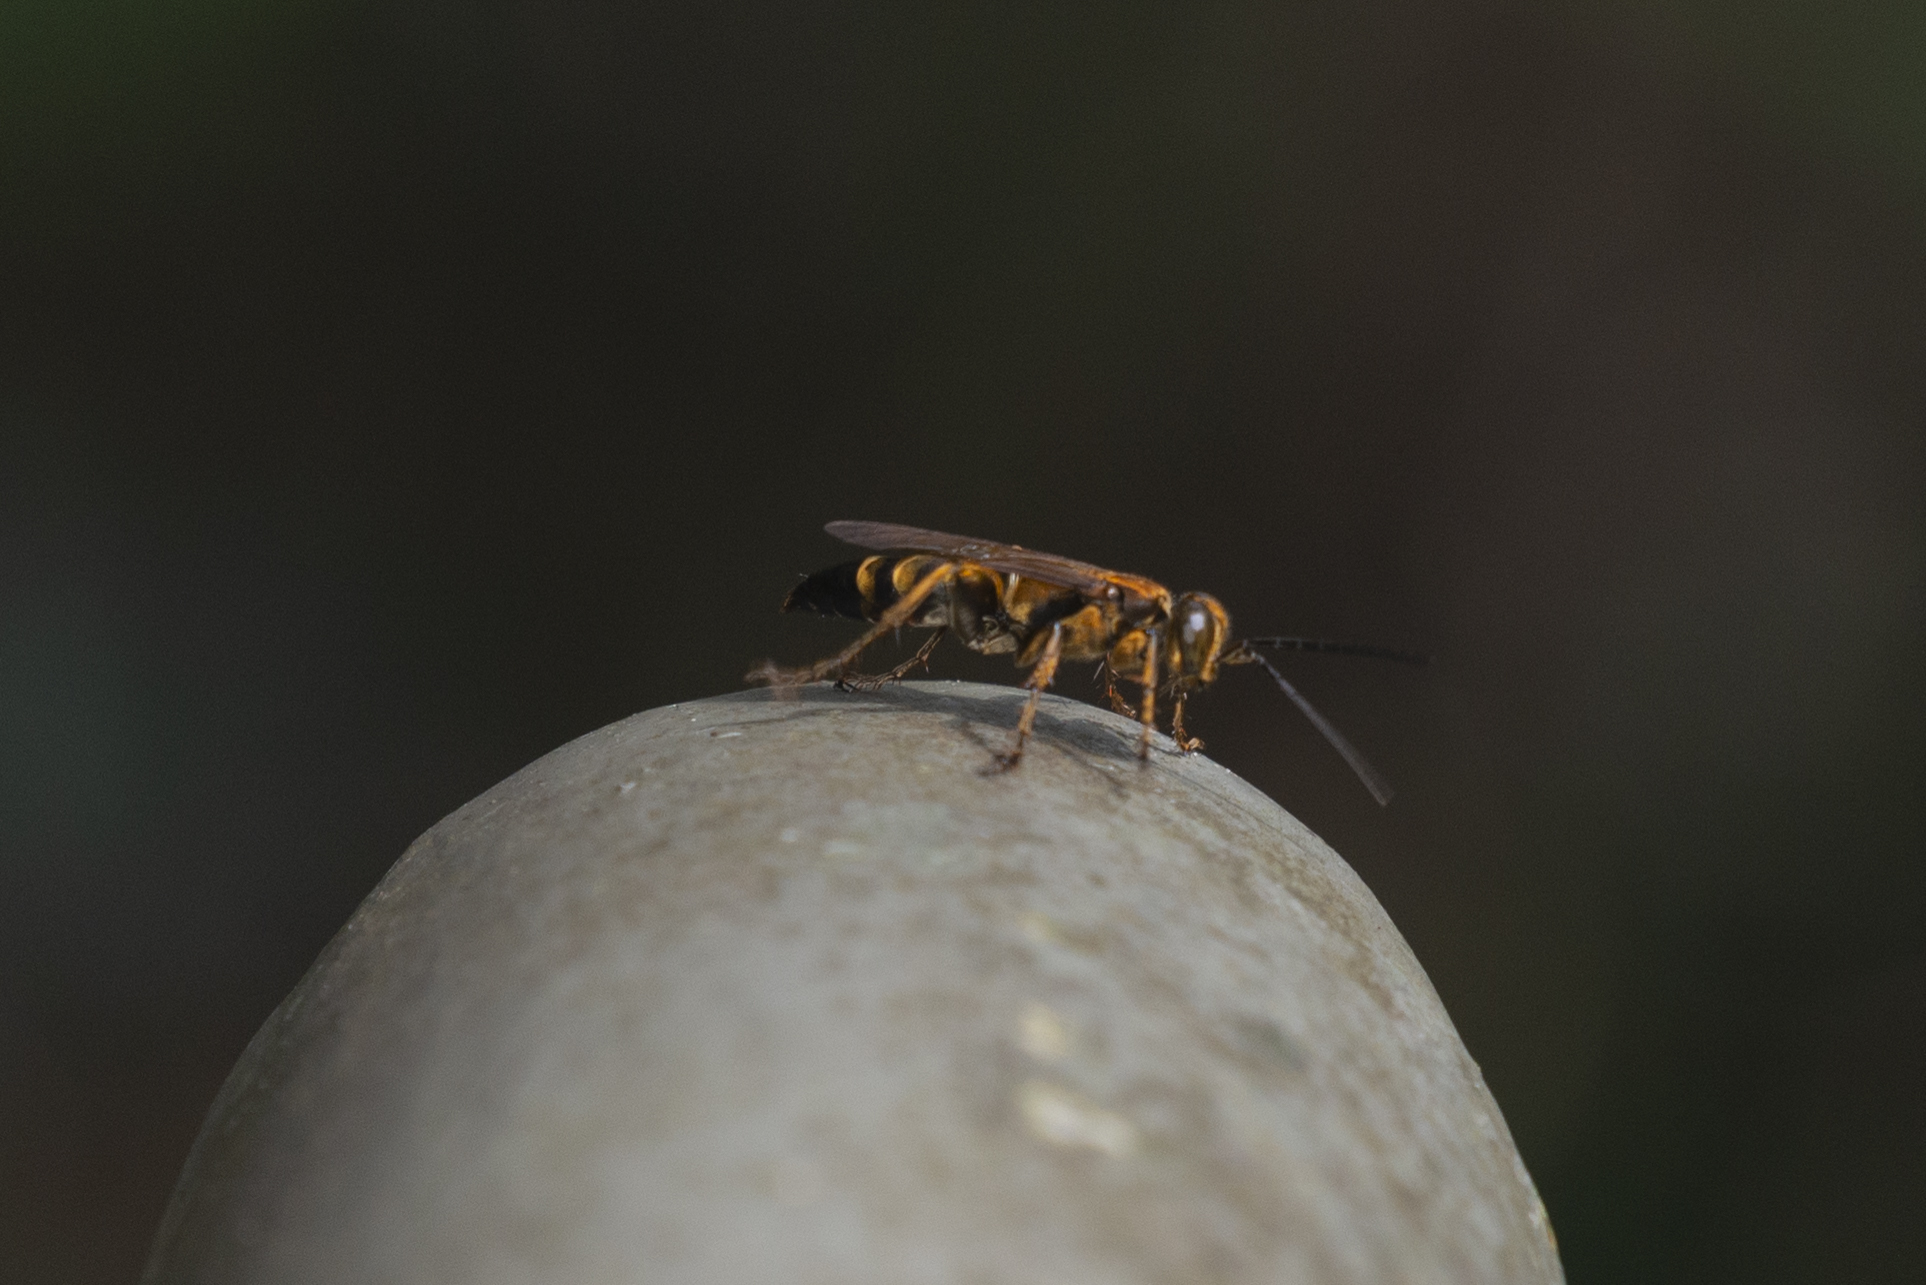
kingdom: Animalia
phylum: Arthropoda
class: Insecta
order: Hymenoptera
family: Sphecidae
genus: Sphex
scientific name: Sphex sericeus
